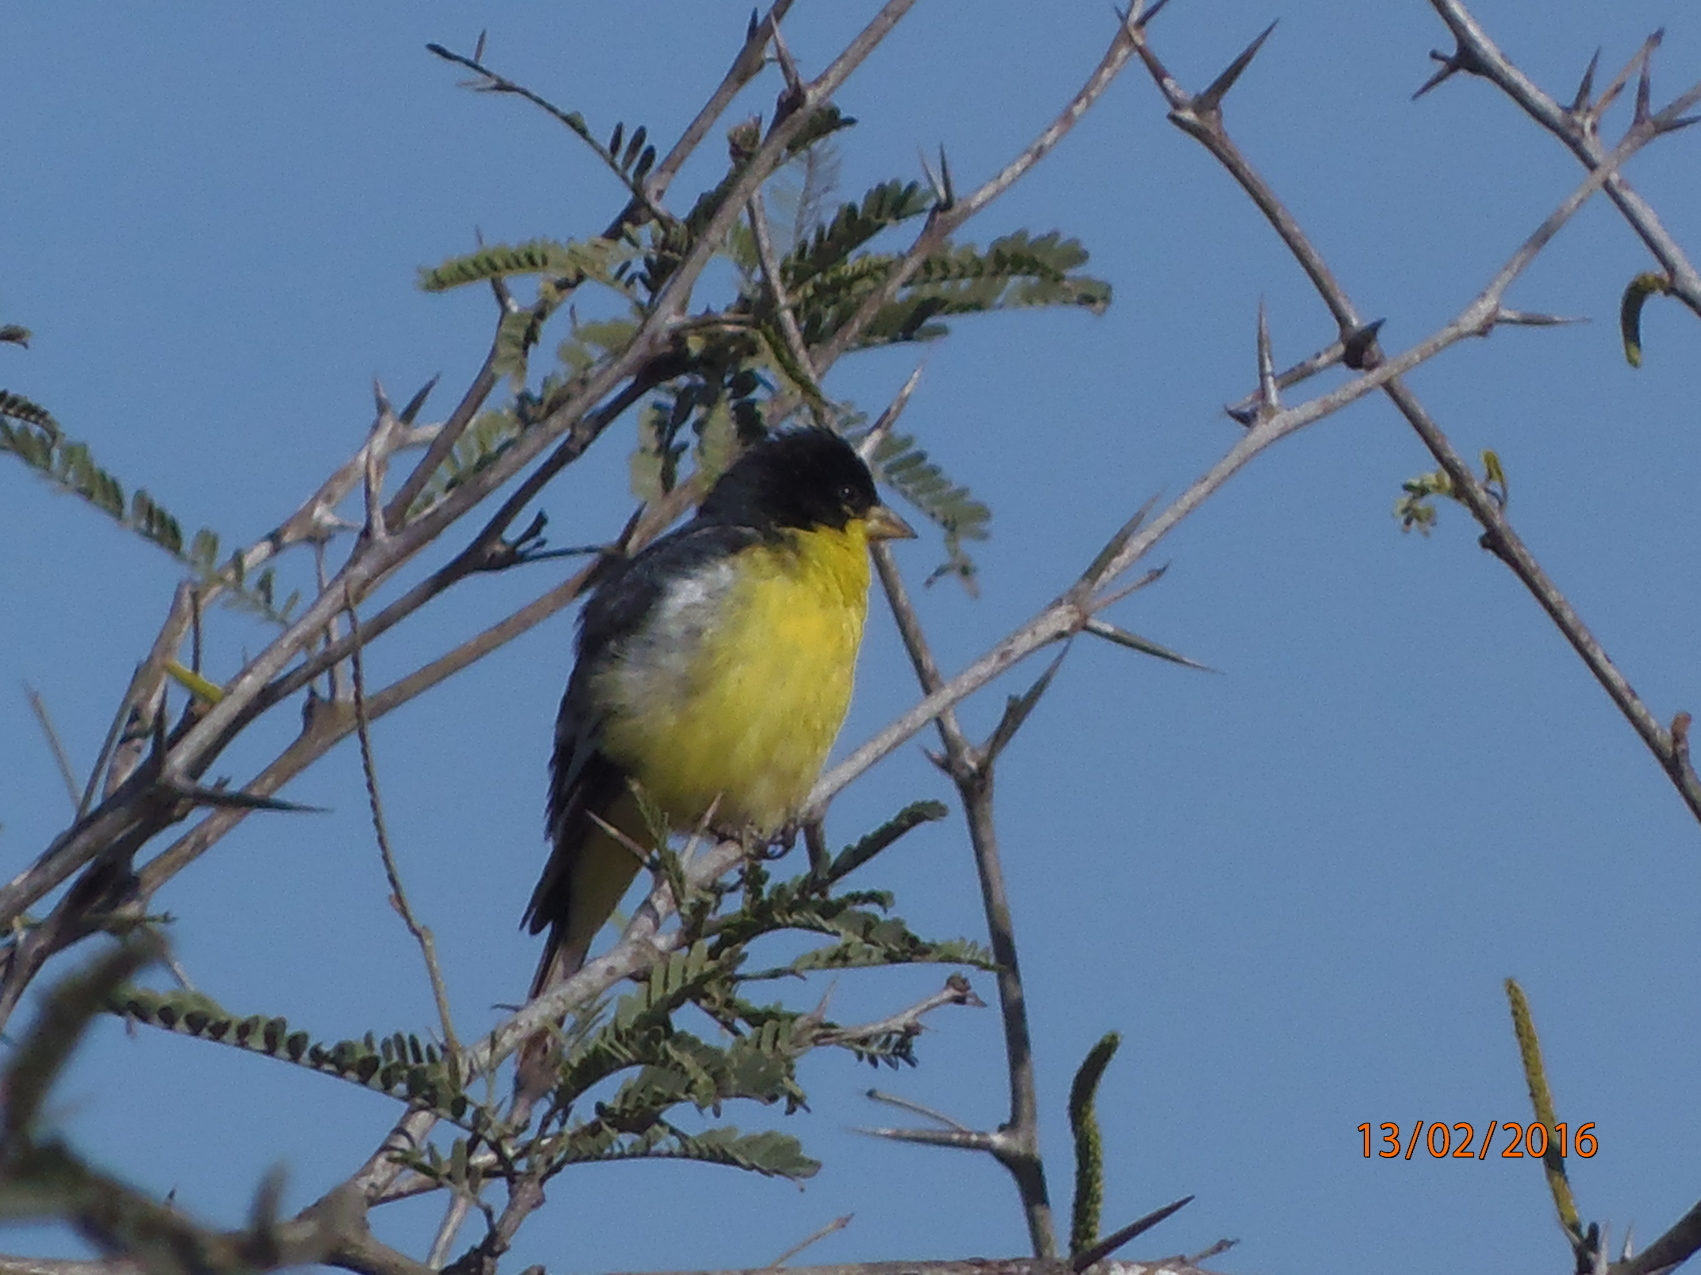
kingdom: Animalia
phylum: Chordata
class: Aves
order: Passeriformes
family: Fringillidae
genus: Spinus
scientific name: Spinus psaltria
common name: Lesser goldfinch
